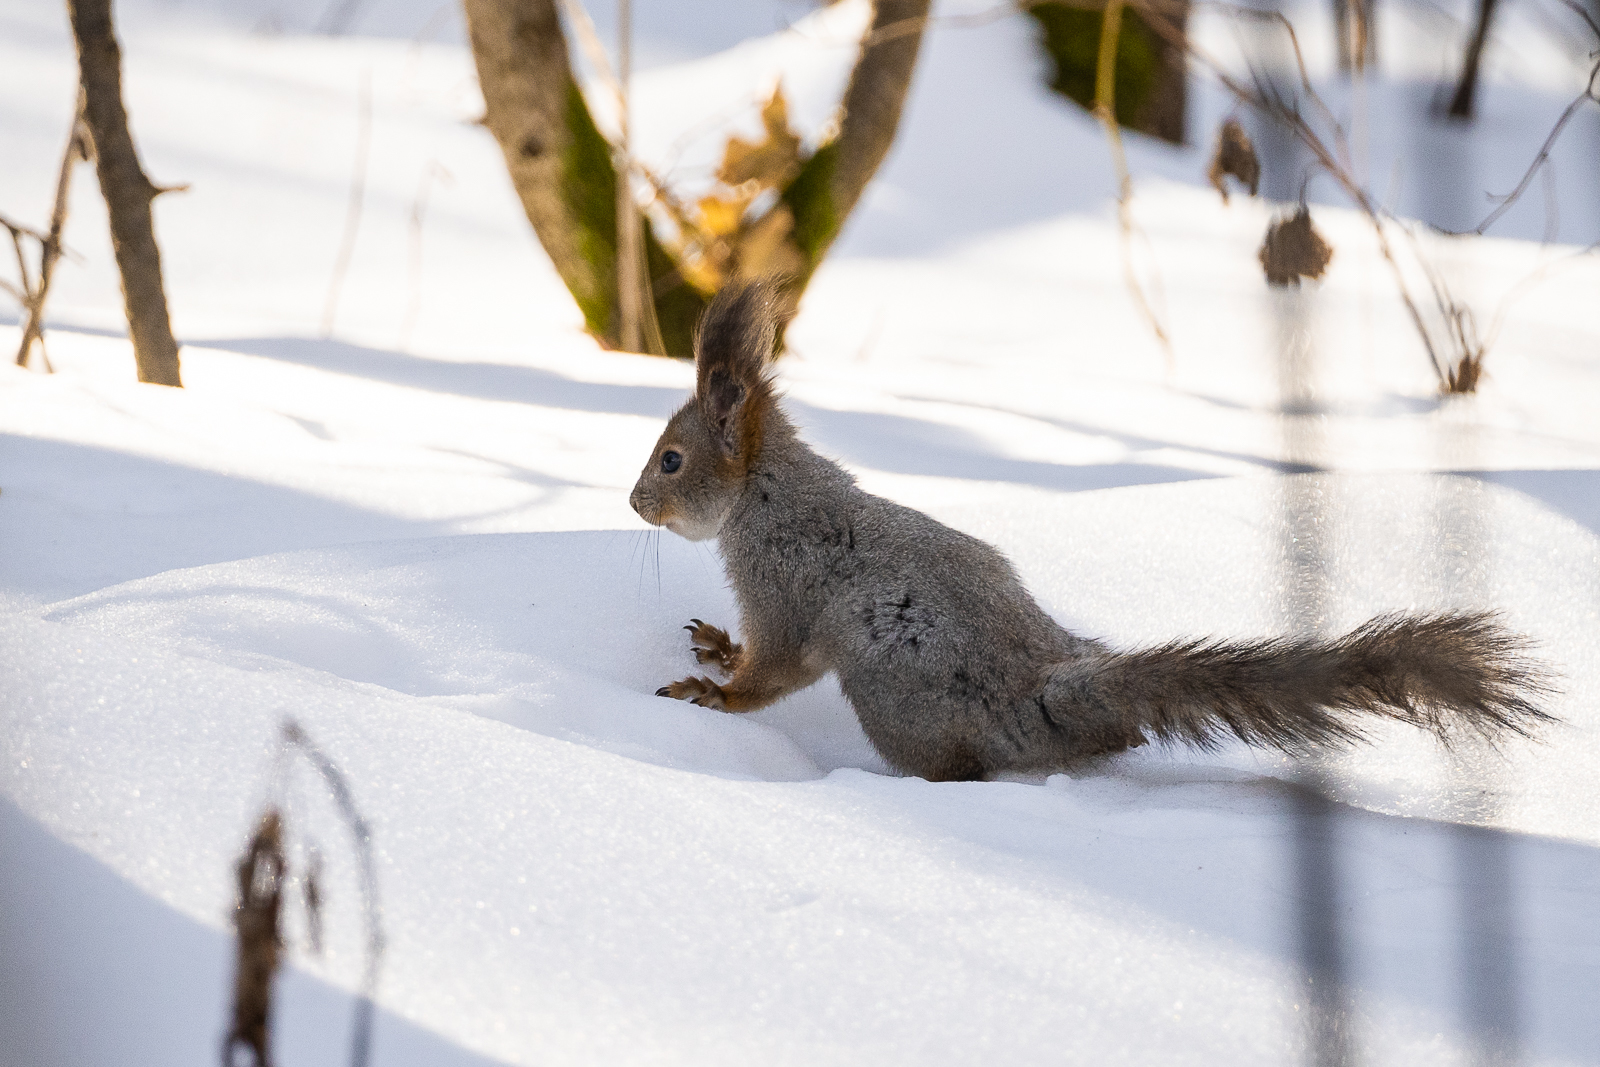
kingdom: Animalia
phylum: Chordata
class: Mammalia
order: Rodentia
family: Sciuridae
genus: Sciurus
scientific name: Sciurus vulgaris
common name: Eurasian red squirrel
